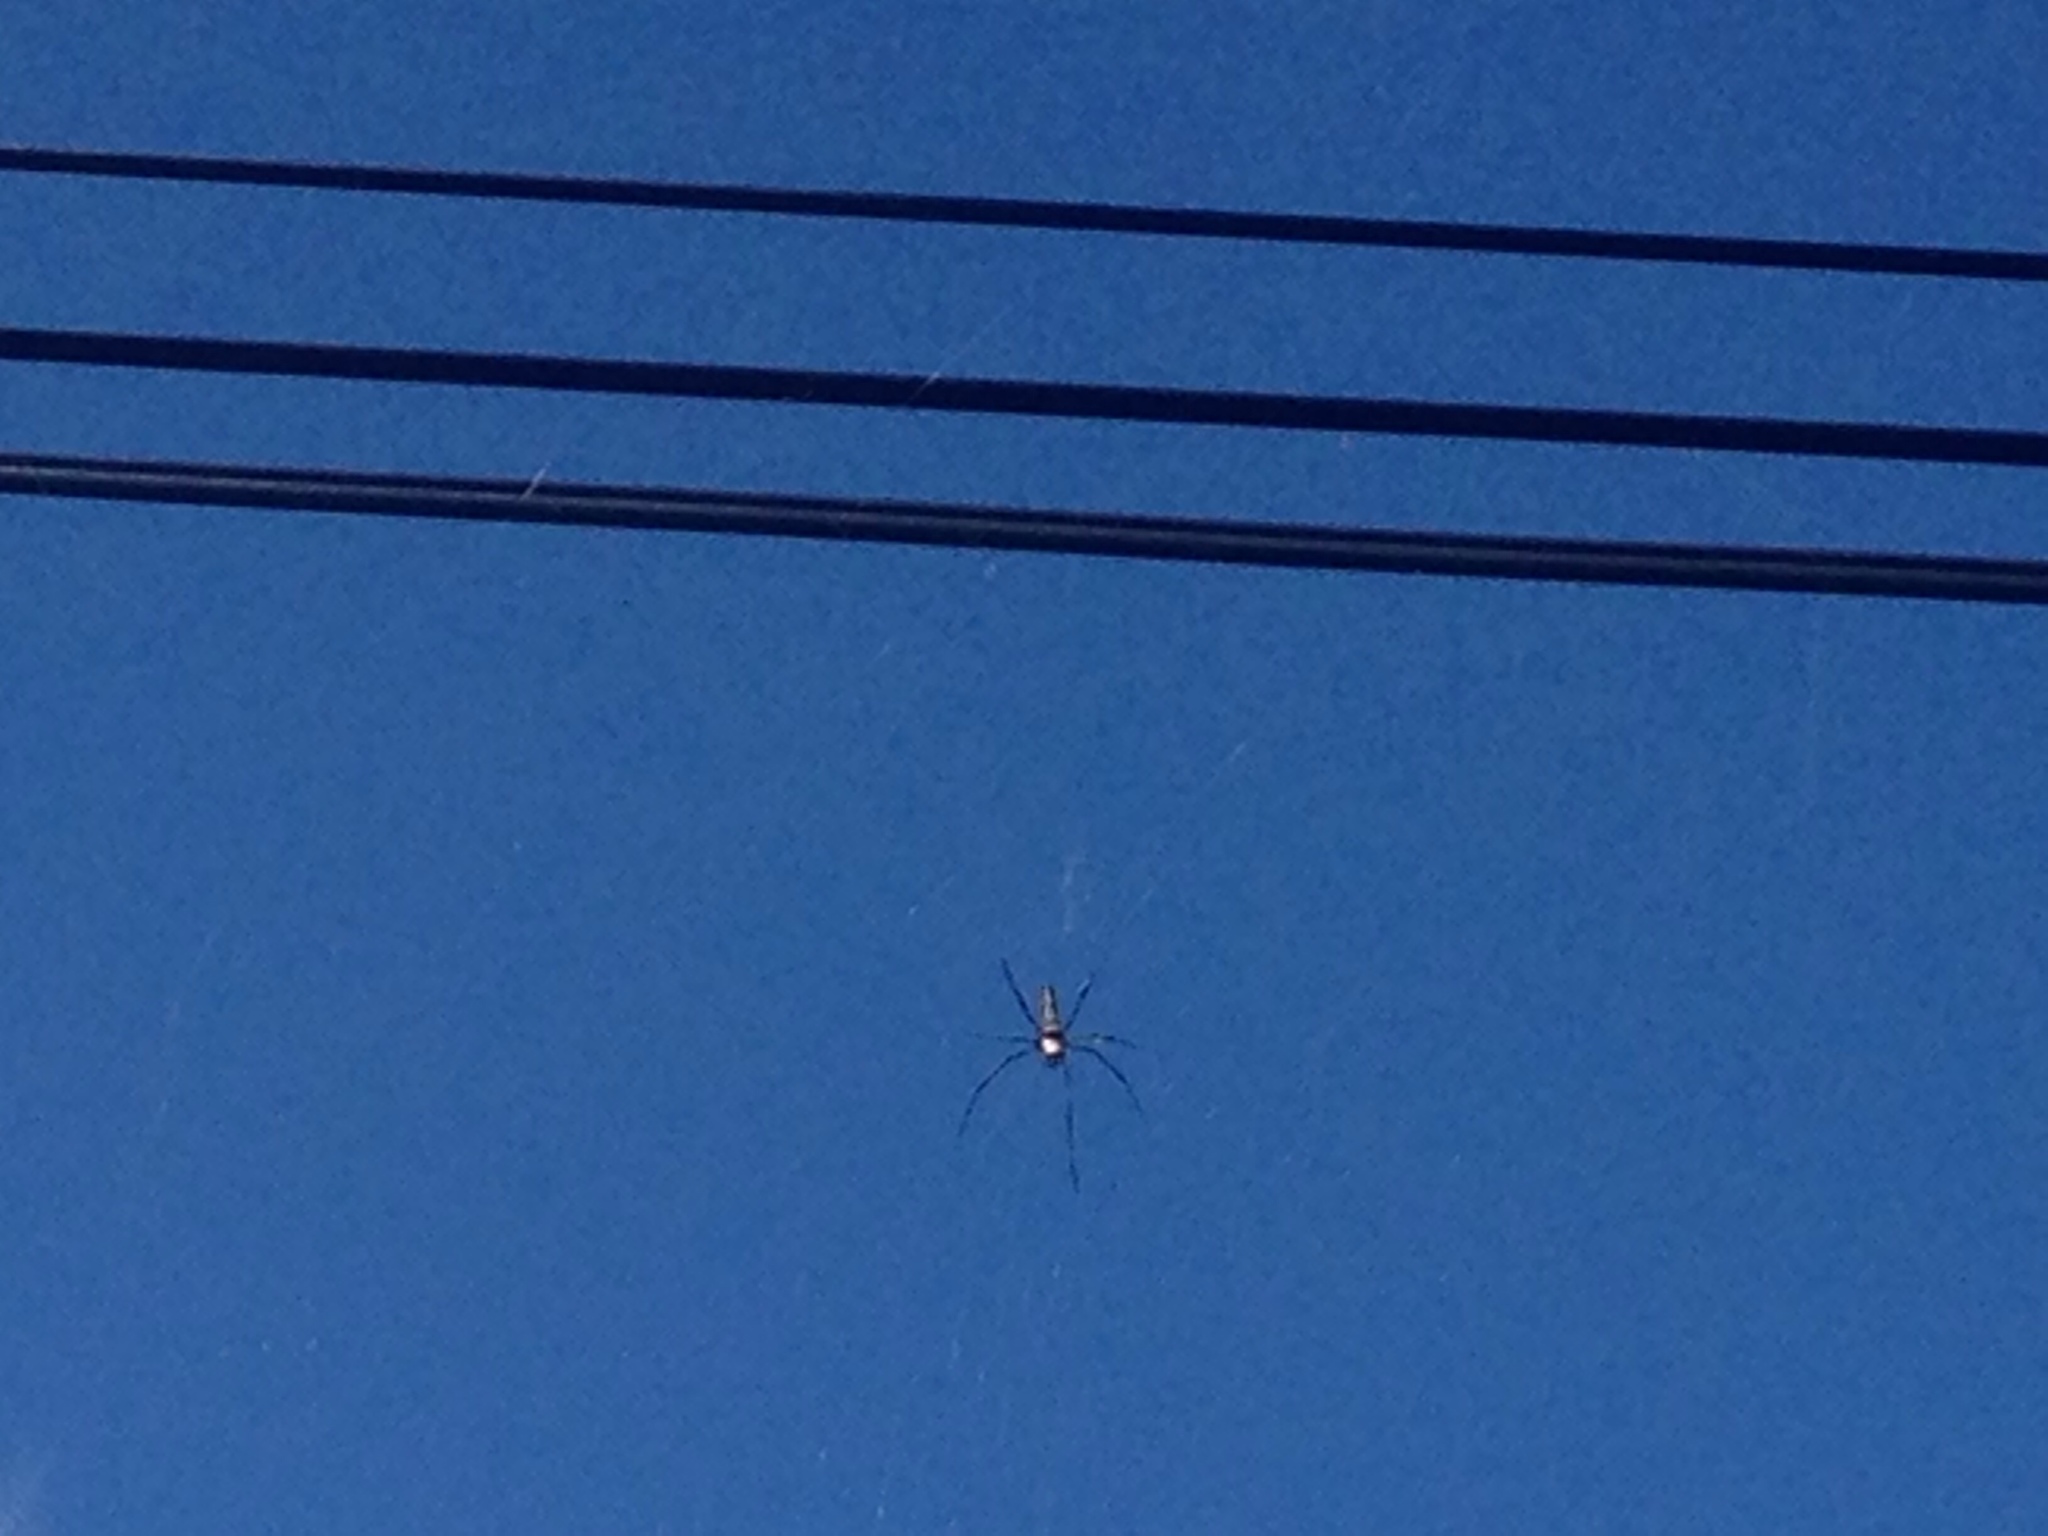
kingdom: Animalia
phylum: Arthropoda
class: Arachnida
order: Araneae
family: Araneidae
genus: Nephila
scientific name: Nephila pilipes
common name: Giant golden orb weaver
